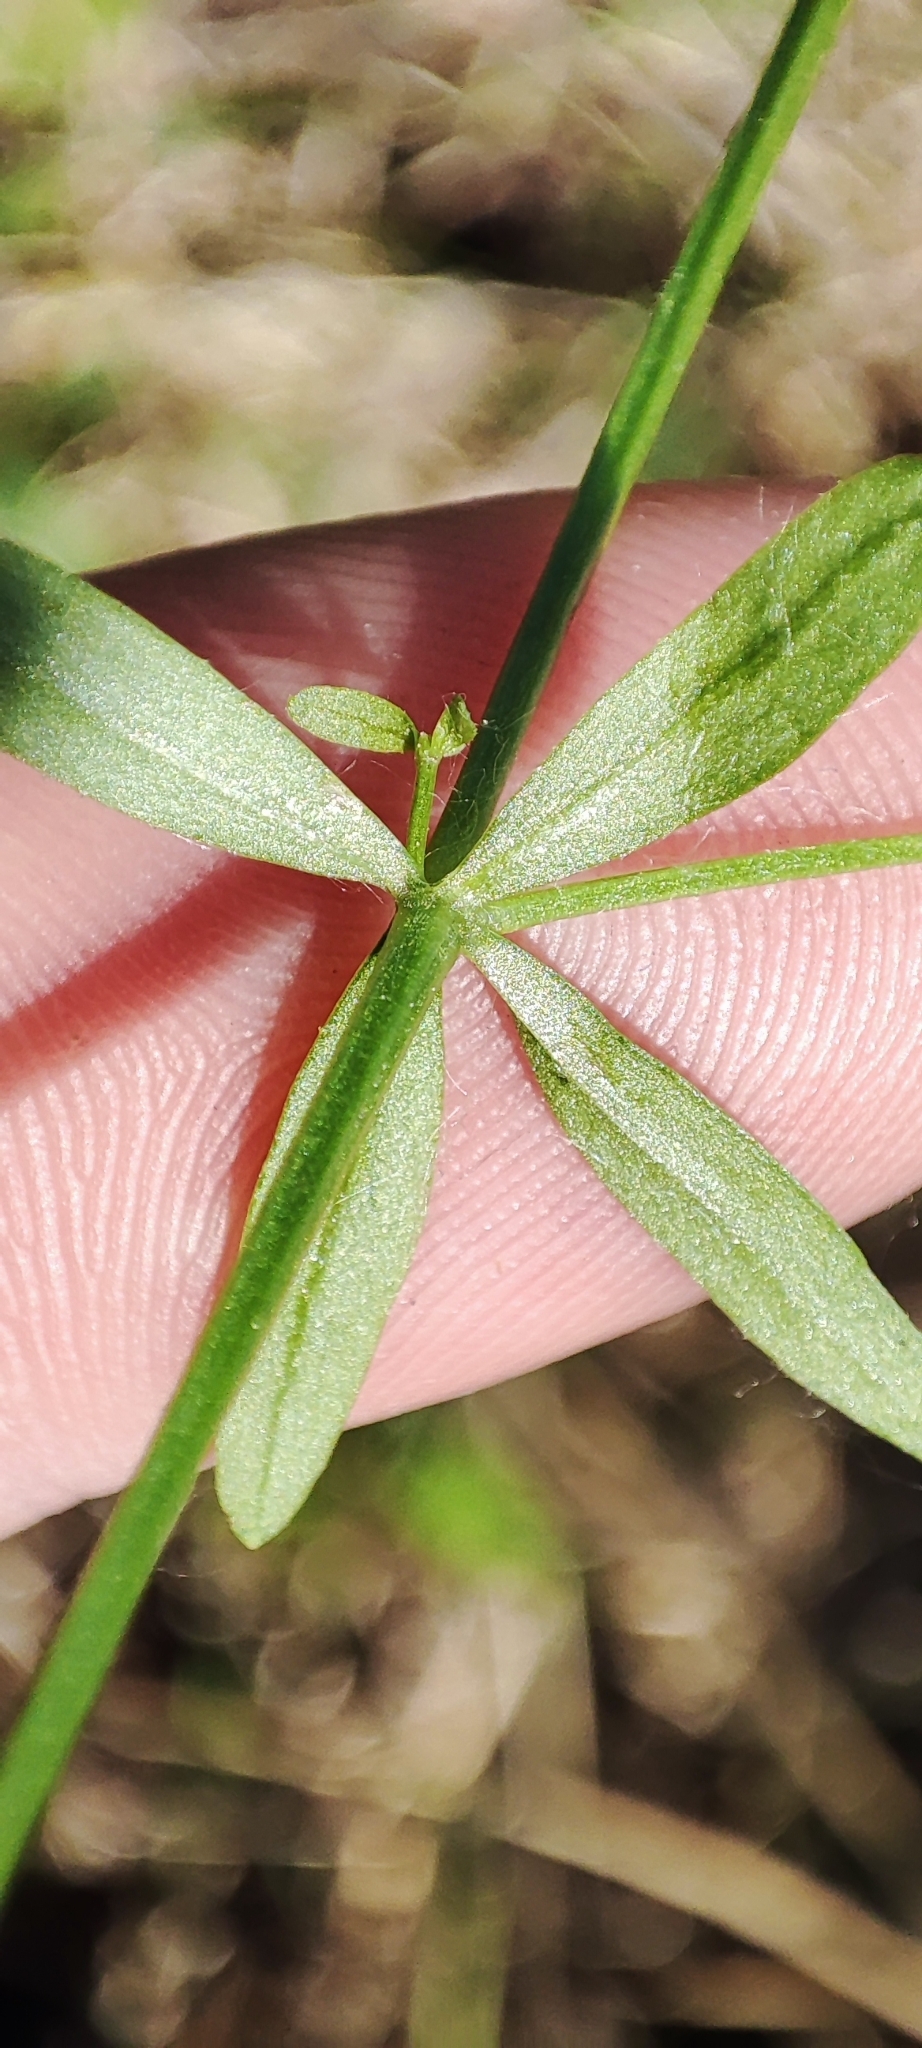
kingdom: Plantae
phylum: Tracheophyta
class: Magnoliopsida
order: Gentianales
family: Rubiaceae
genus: Galium
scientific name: Galium palustre
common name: Common marsh-bedstraw
